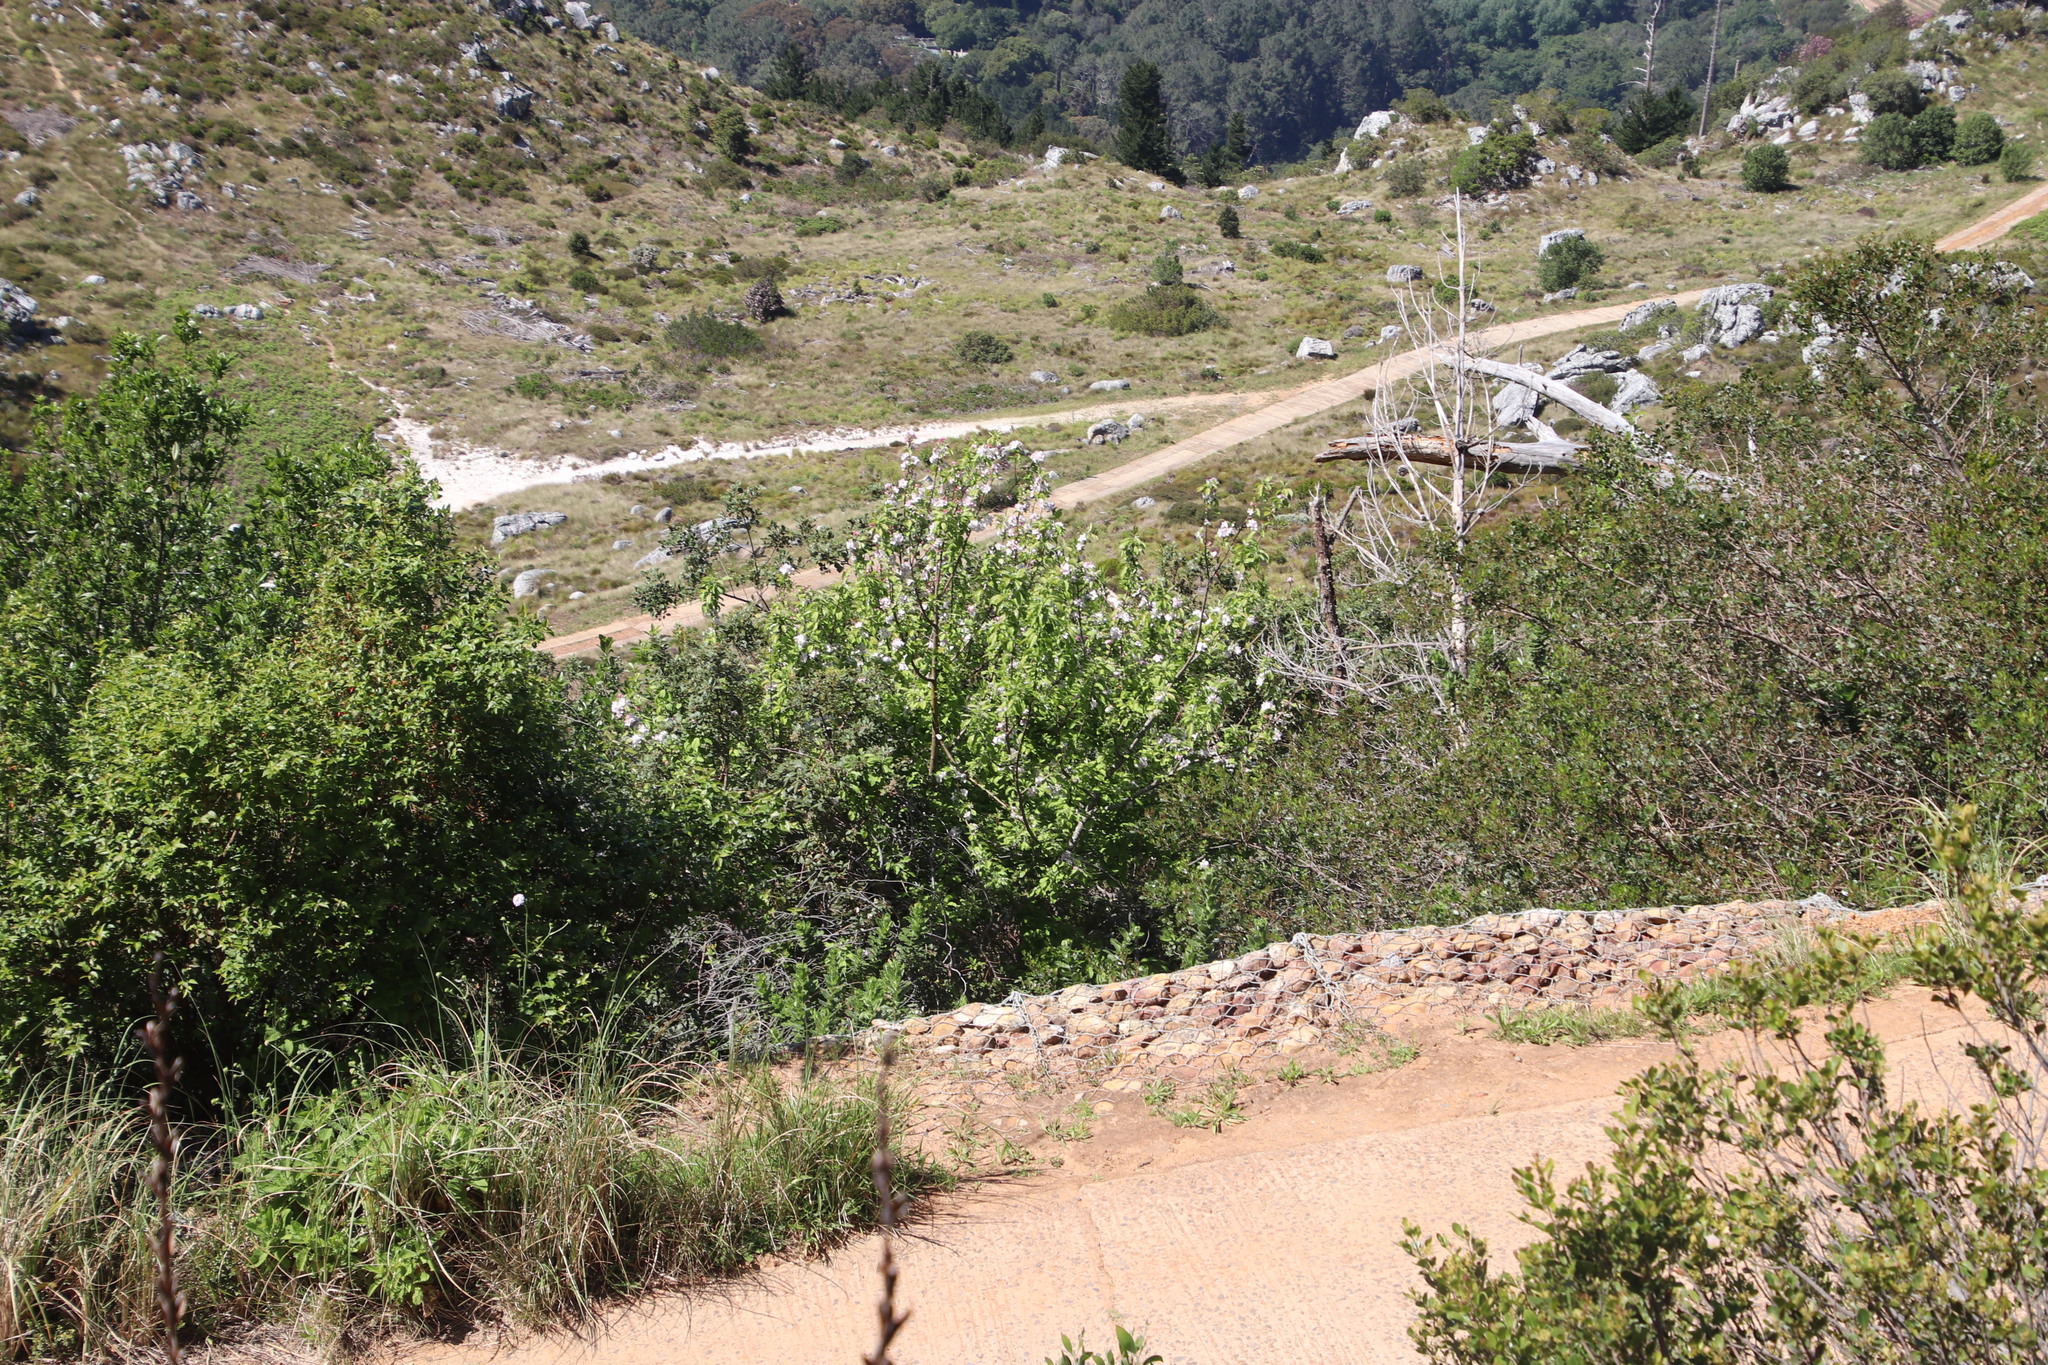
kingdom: Plantae
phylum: Tracheophyta
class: Magnoliopsida
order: Rosales
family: Rosaceae
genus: Malus
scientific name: Malus domestica
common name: Apple
